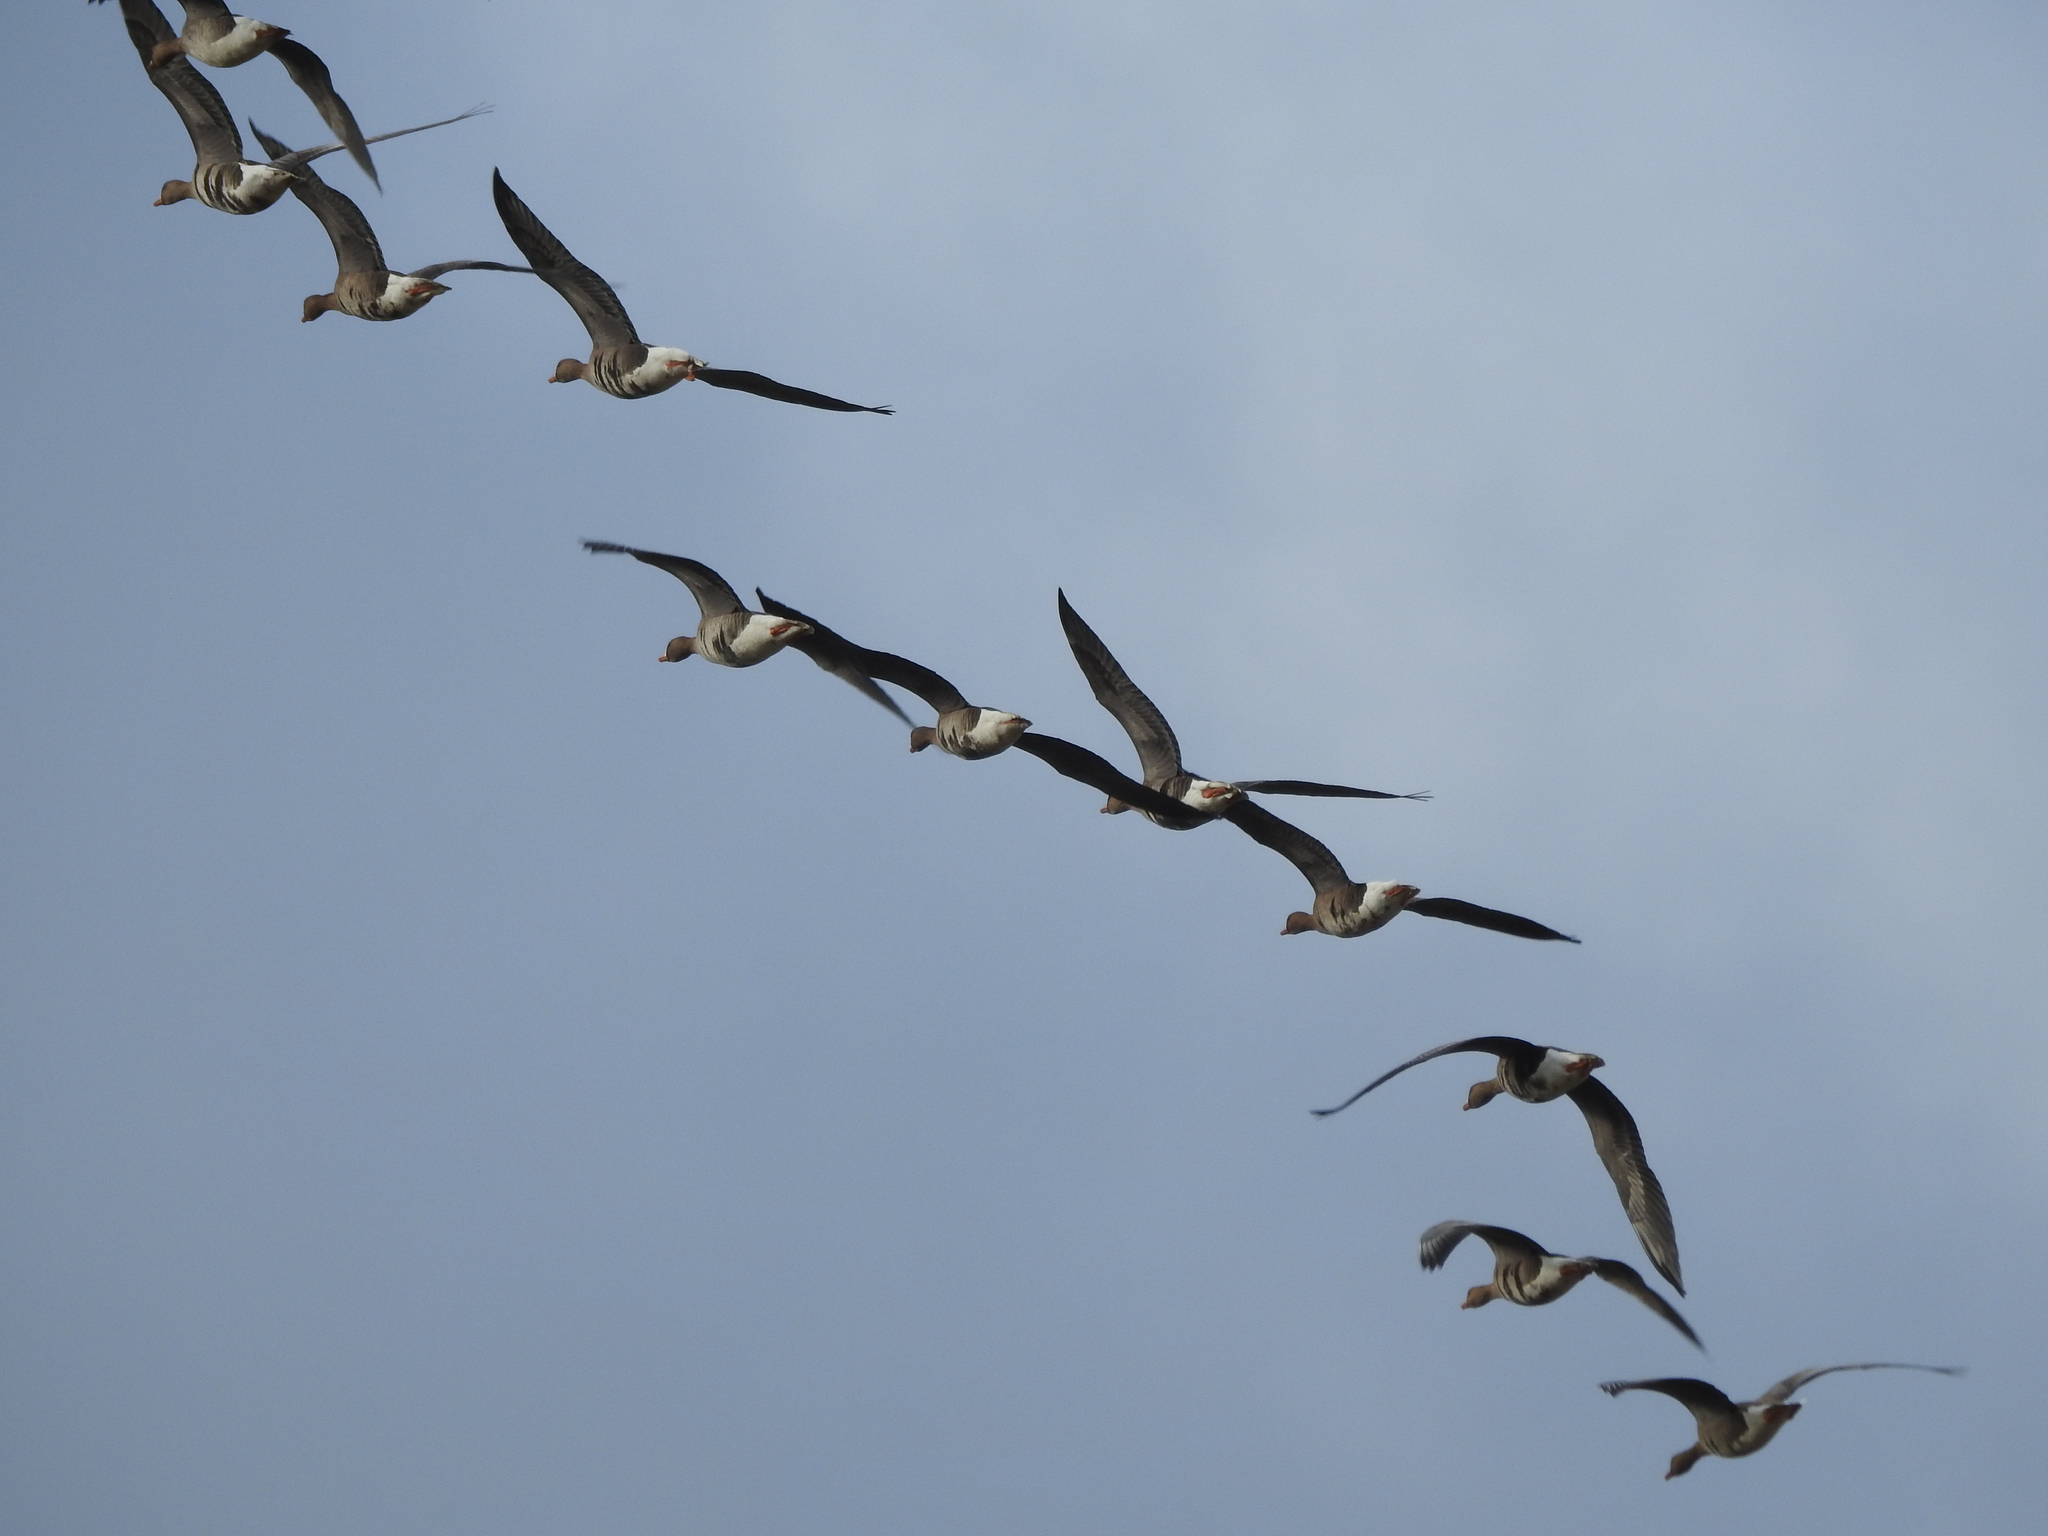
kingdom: Animalia
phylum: Chordata
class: Aves
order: Anseriformes
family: Anatidae
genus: Anser
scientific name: Anser albifrons
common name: Greater white-fronted goose
